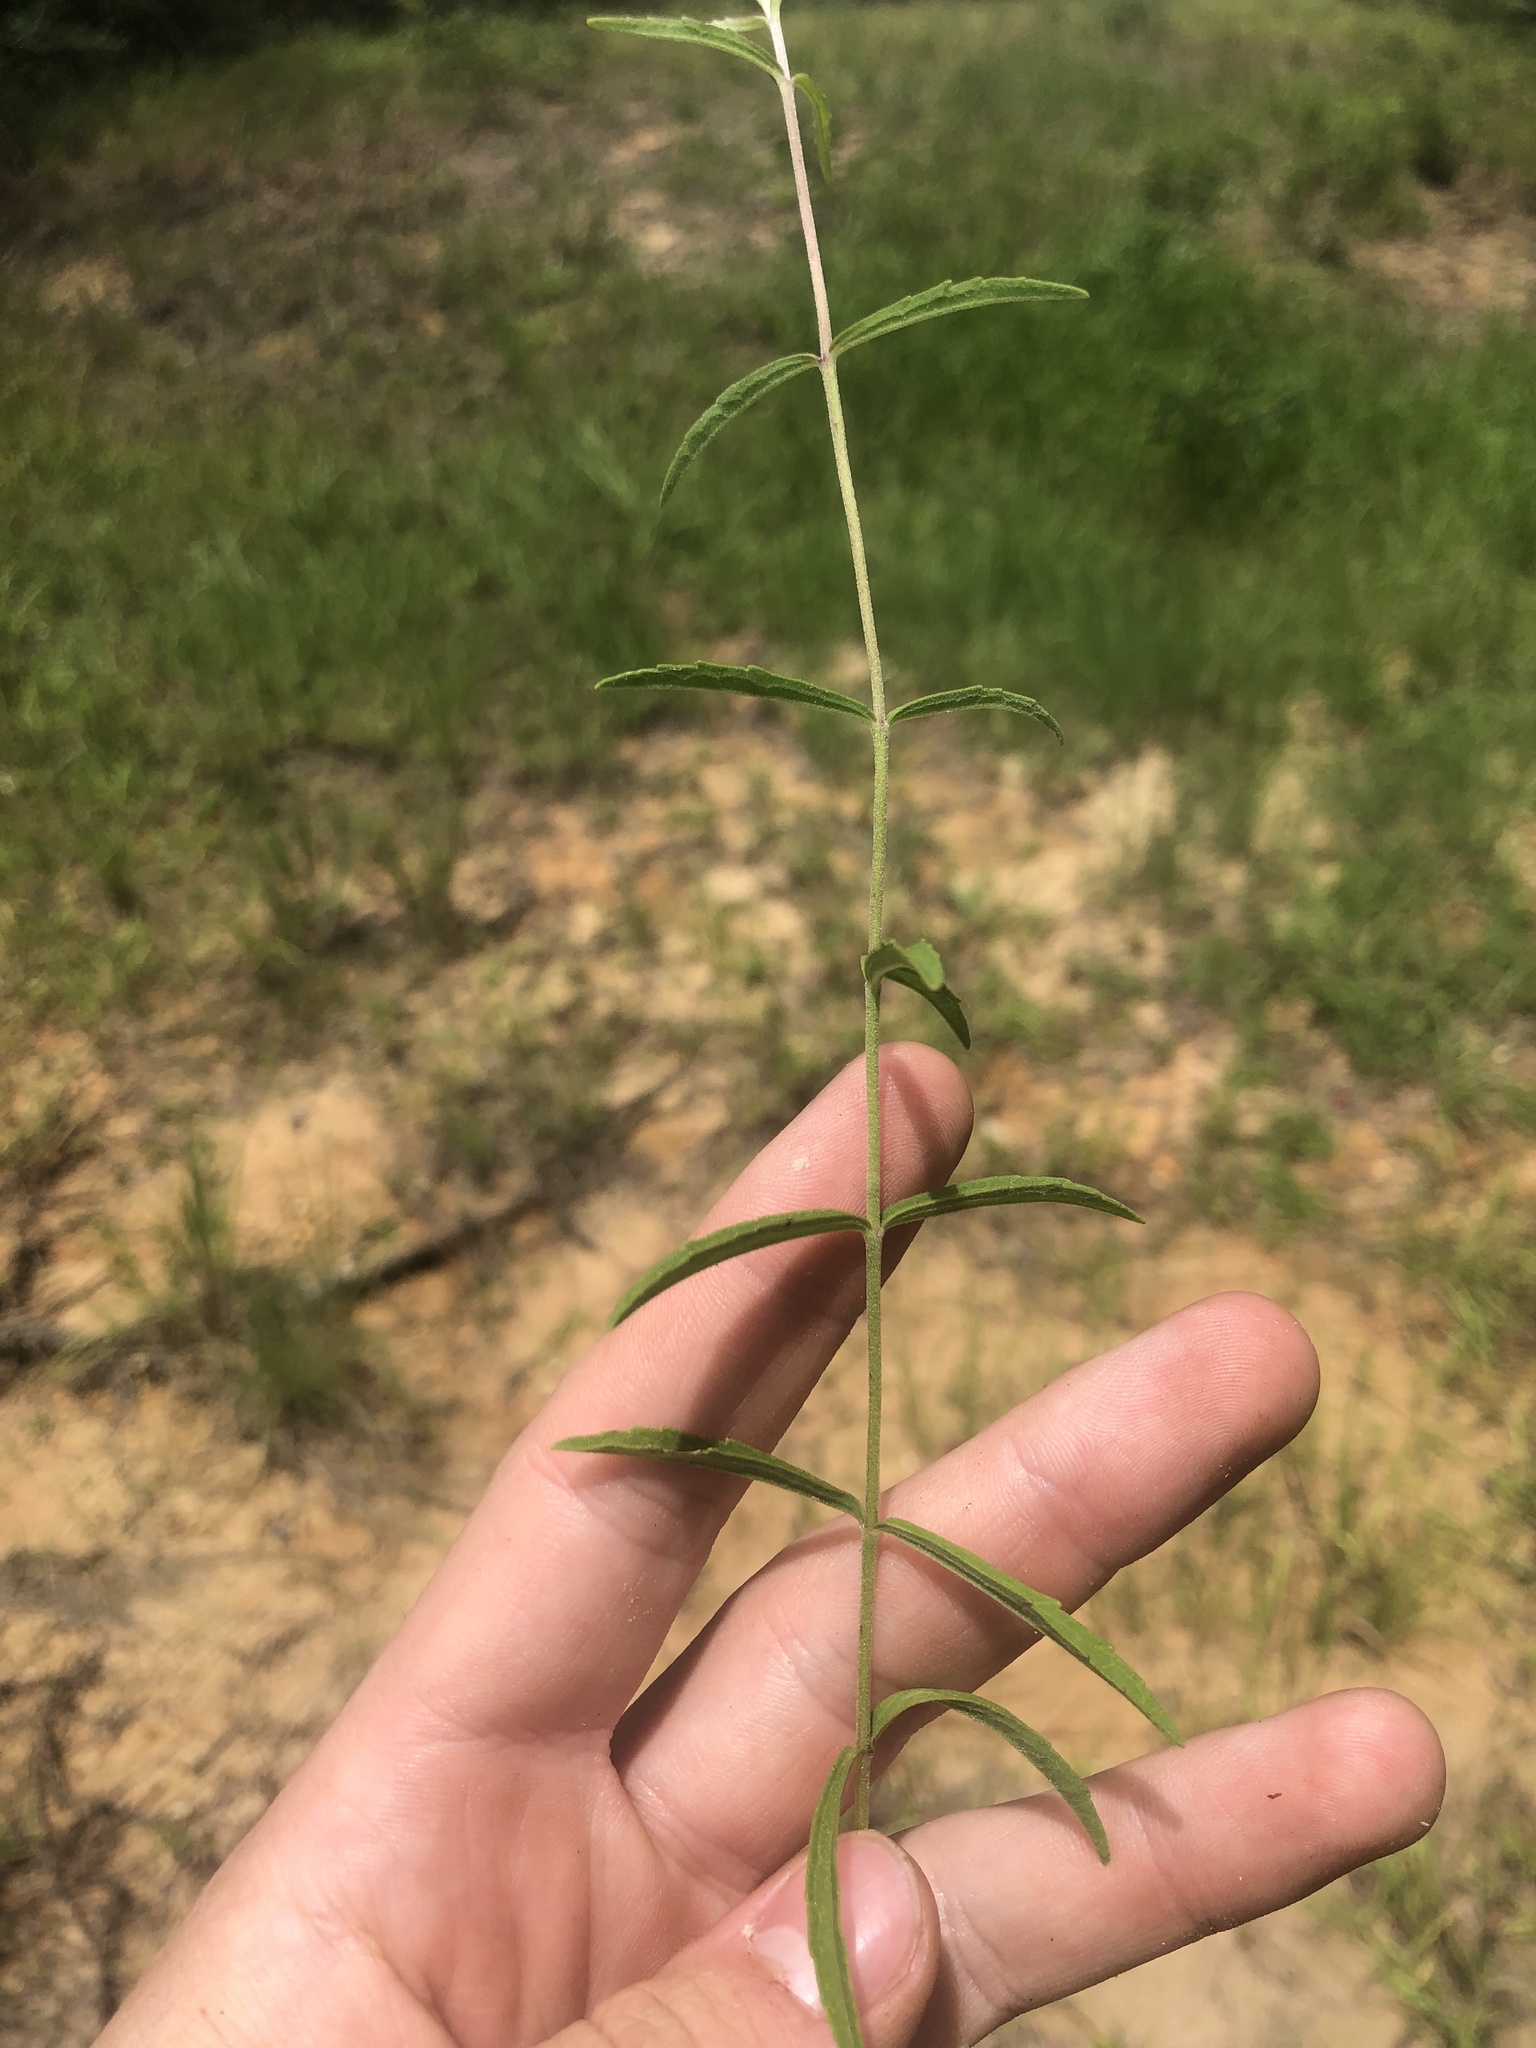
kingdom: Plantae
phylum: Tracheophyta
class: Magnoliopsida
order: Asterales
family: Asteraceae
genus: Eupatorium
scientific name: Eupatorium leucolepis
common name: Justiceweed
